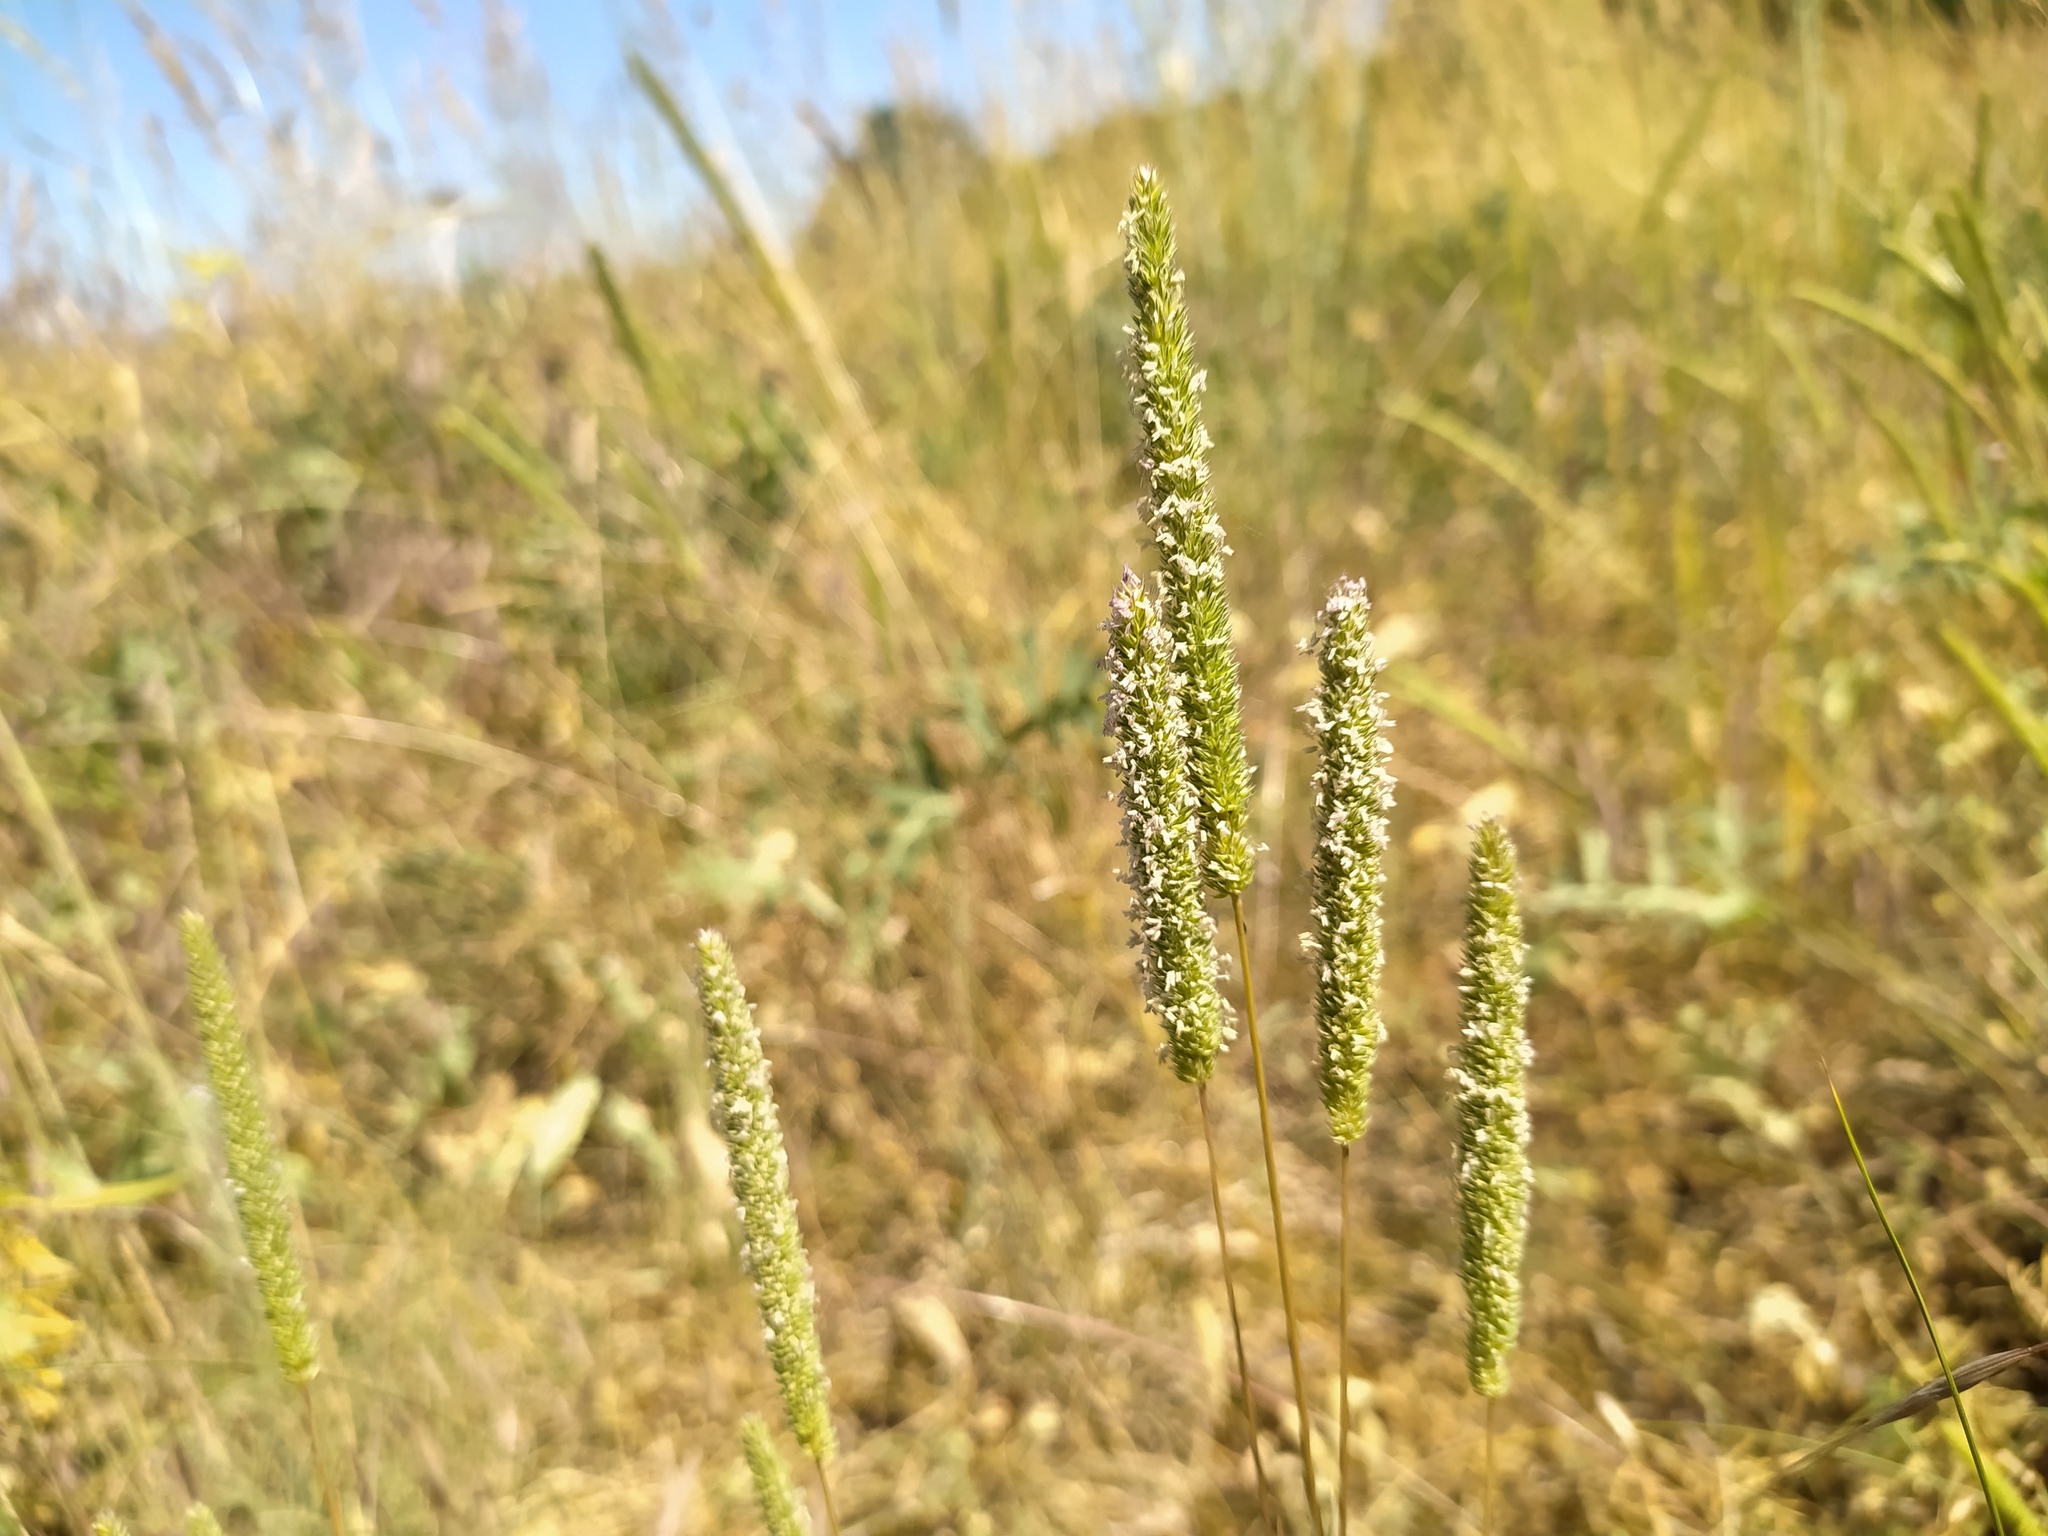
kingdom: Plantae
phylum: Tracheophyta
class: Liliopsida
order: Poales
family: Poaceae
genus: Phleum
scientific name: Phleum phleoides
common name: Purple-stem cat's-tail
